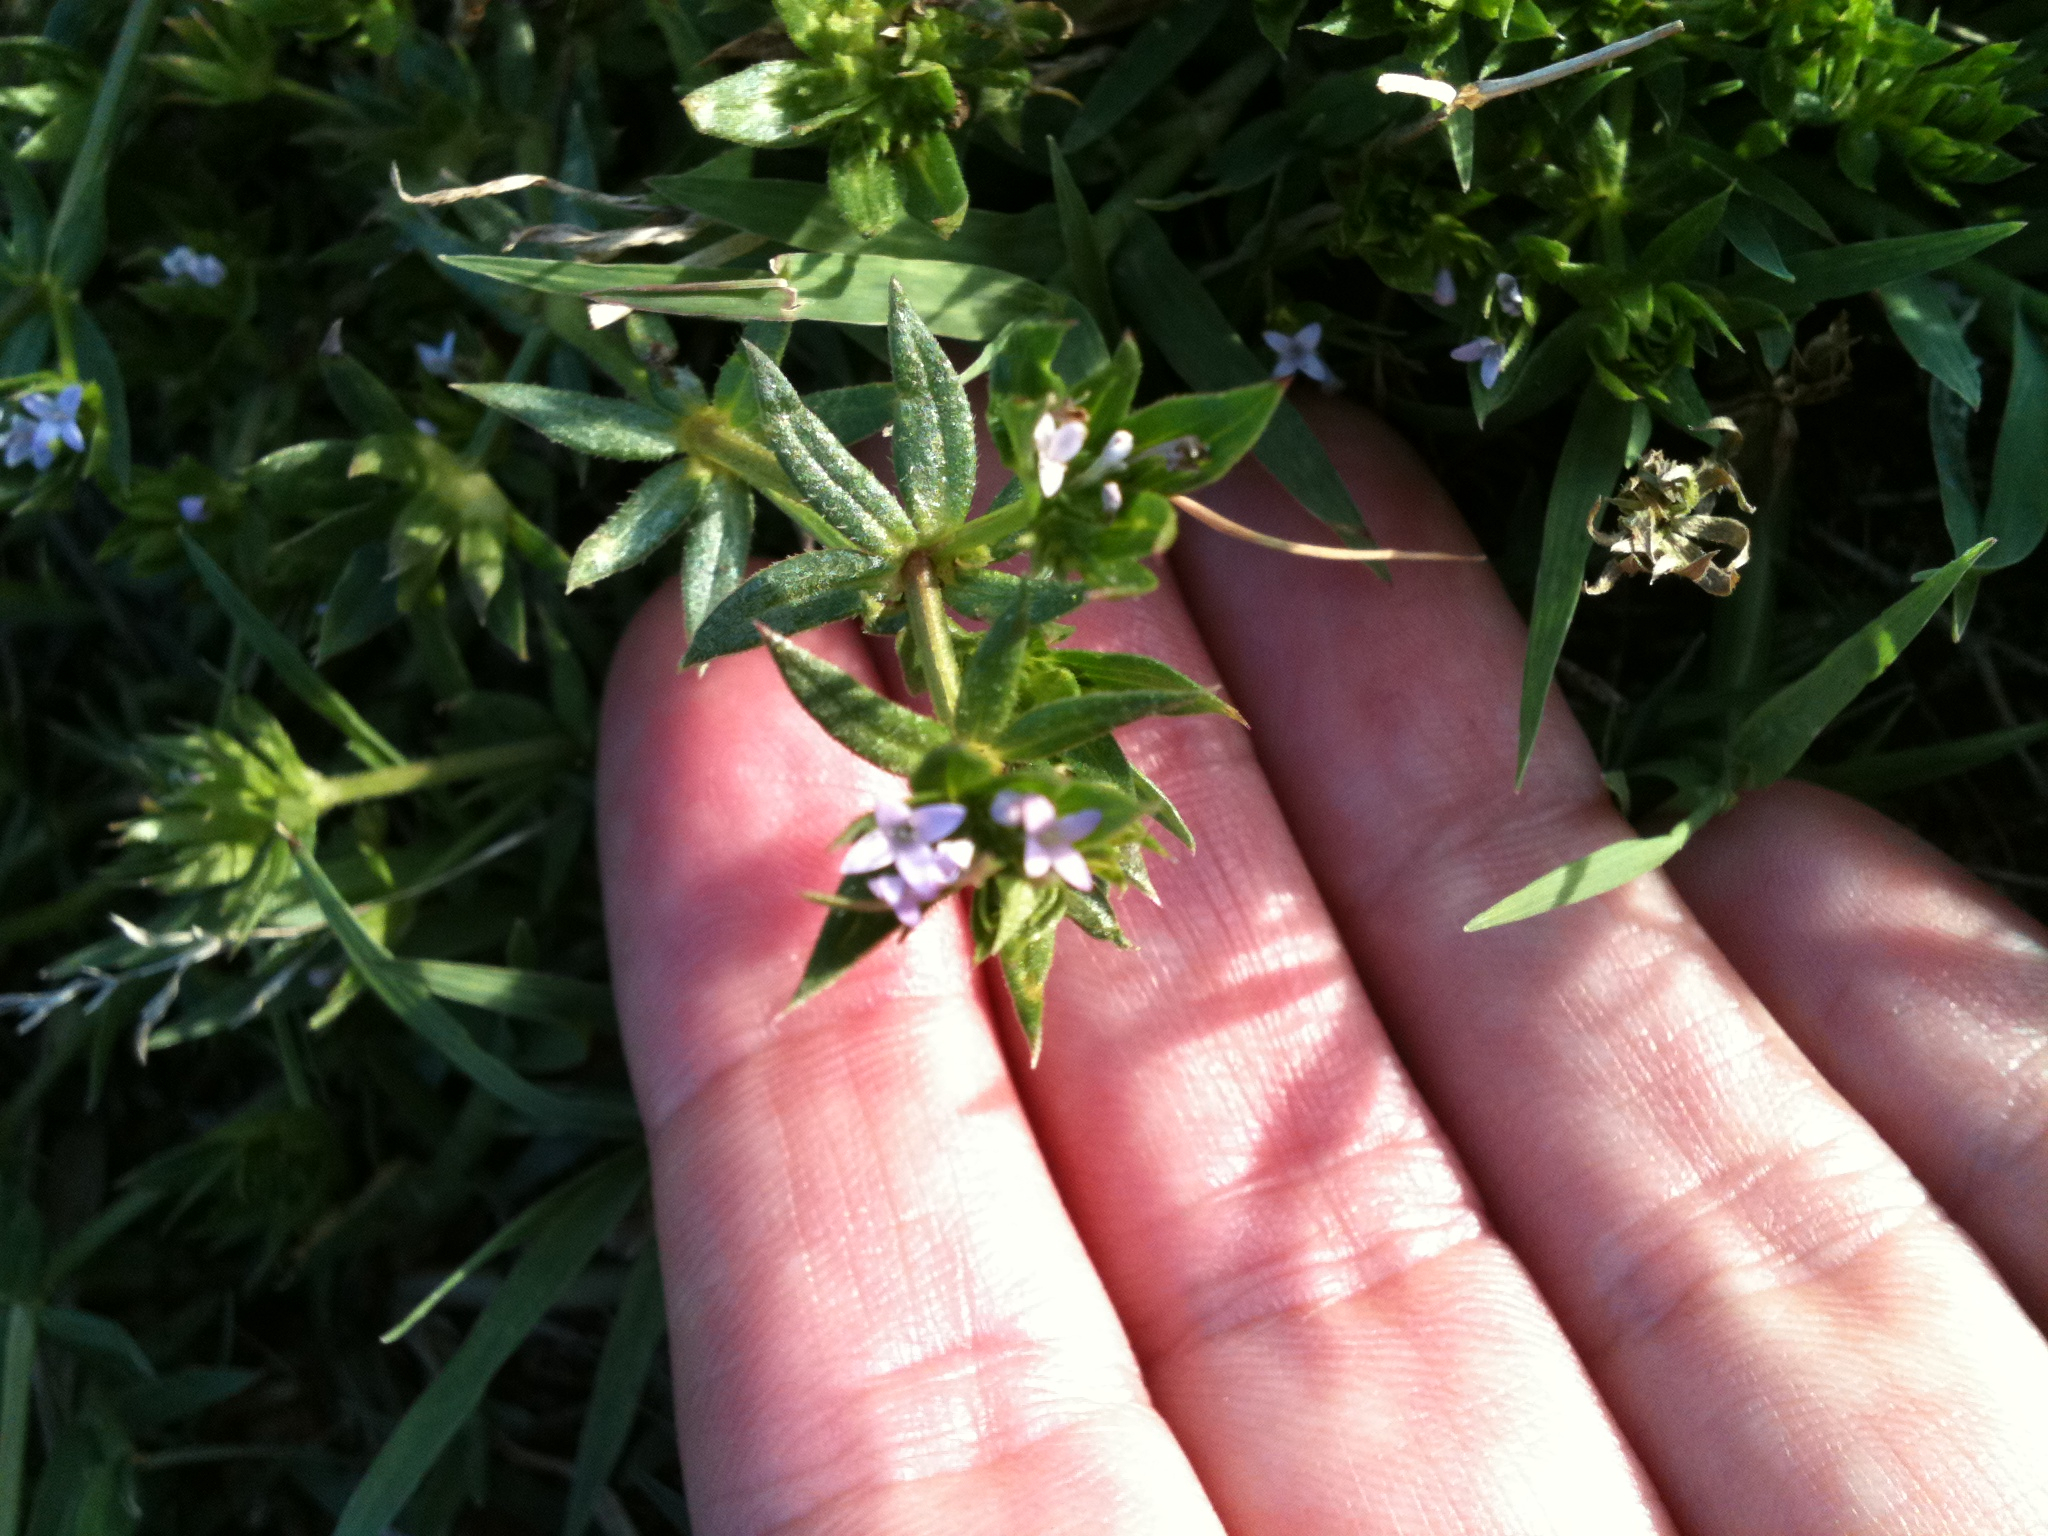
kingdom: Plantae
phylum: Tracheophyta
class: Magnoliopsida
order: Gentianales
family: Rubiaceae
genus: Sherardia
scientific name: Sherardia arvensis
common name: Field madder
